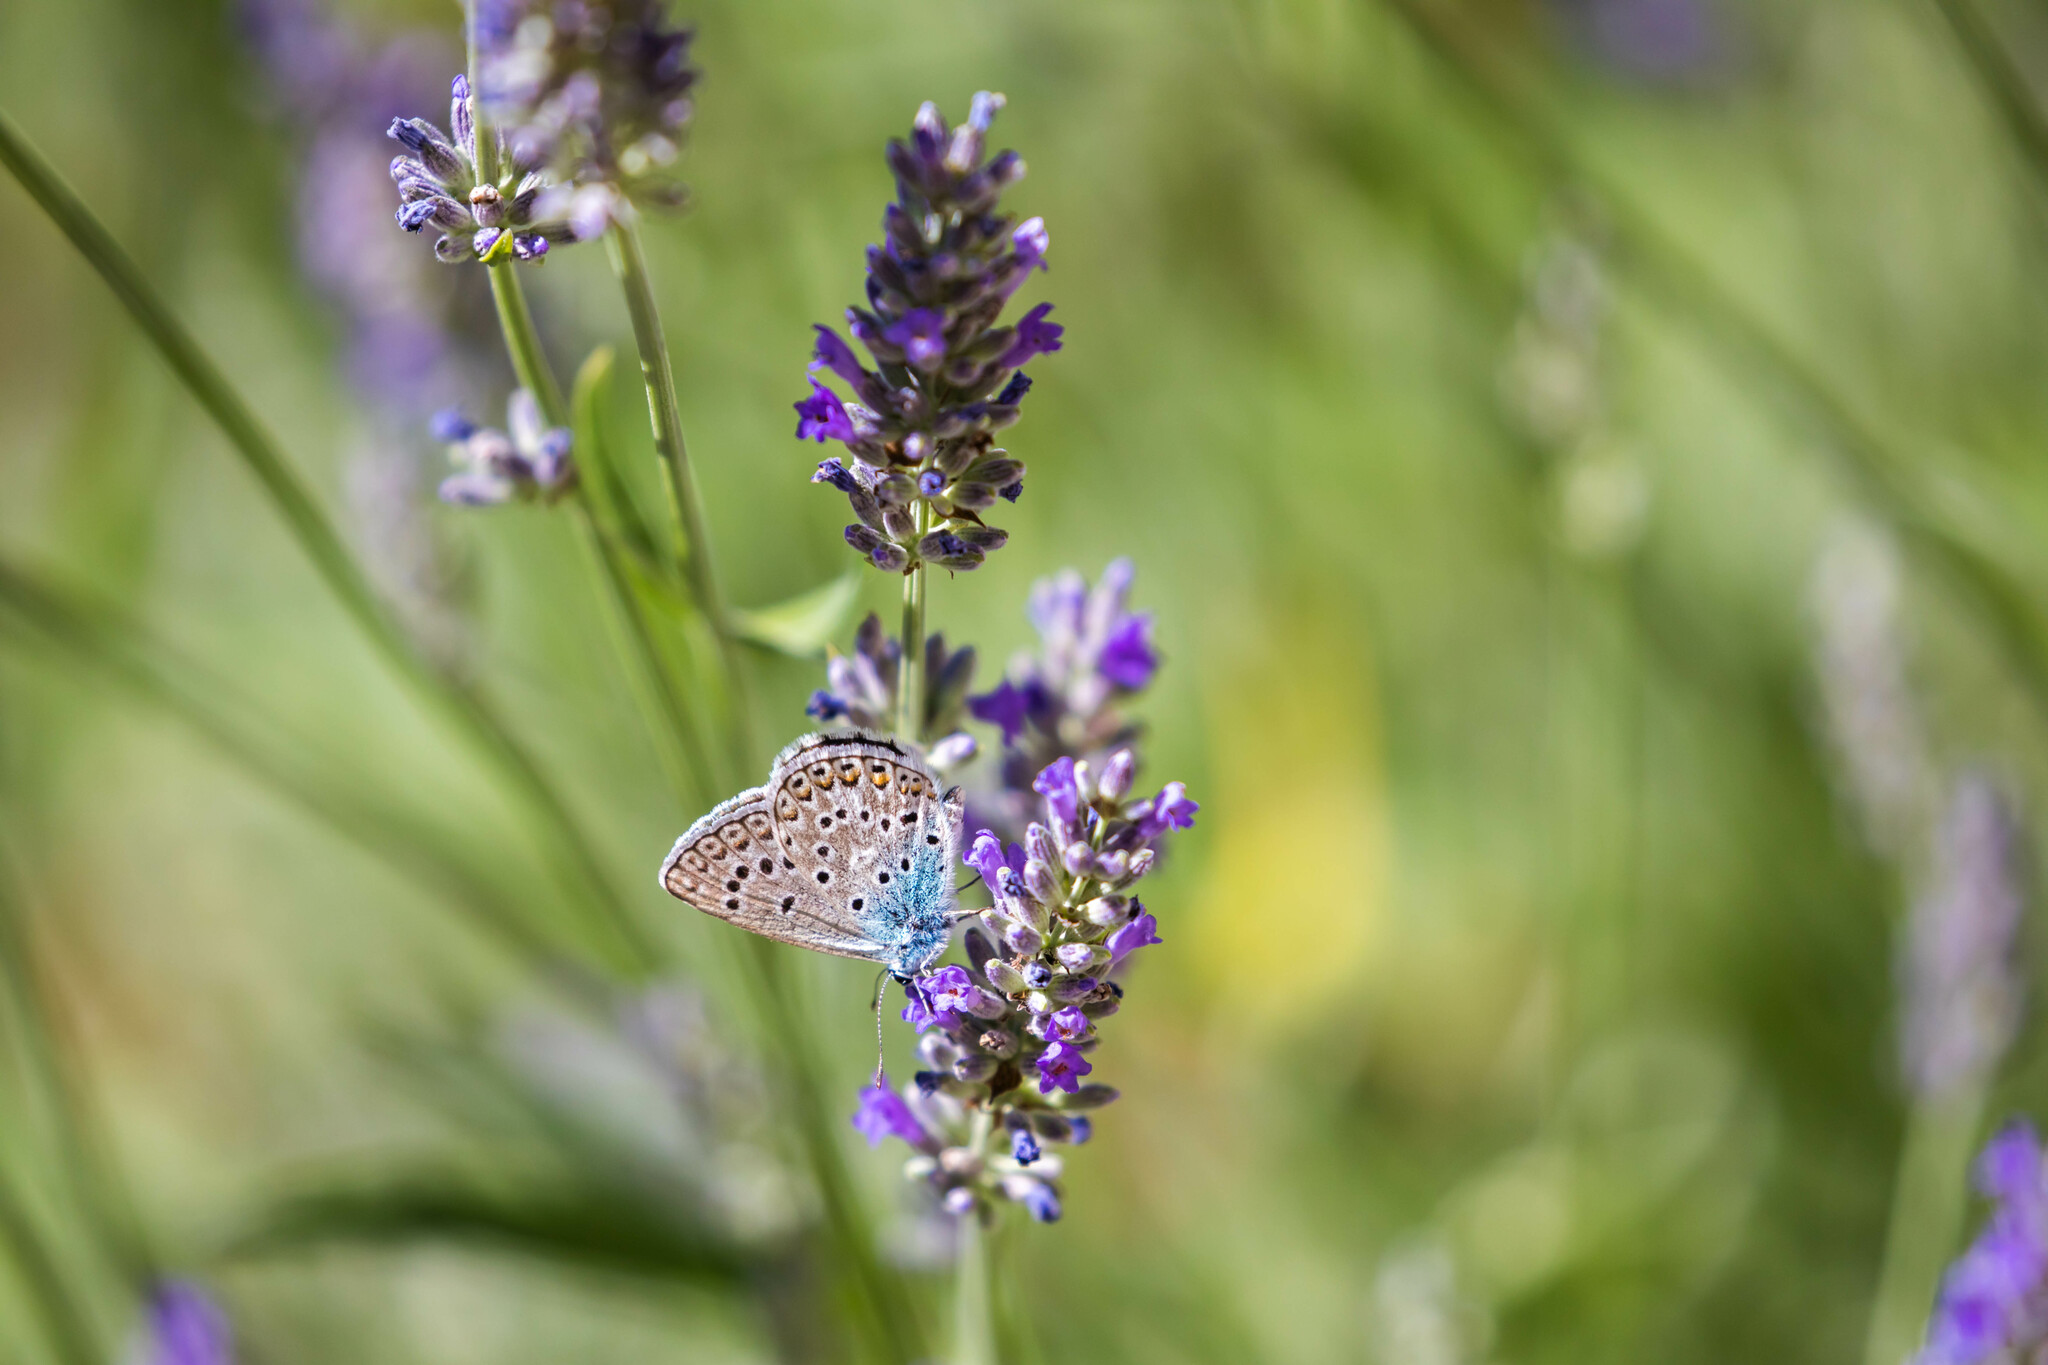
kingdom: Animalia
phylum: Arthropoda
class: Insecta
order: Lepidoptera
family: Lycaenidae
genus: Plebicula
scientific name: Plebicula escheri
